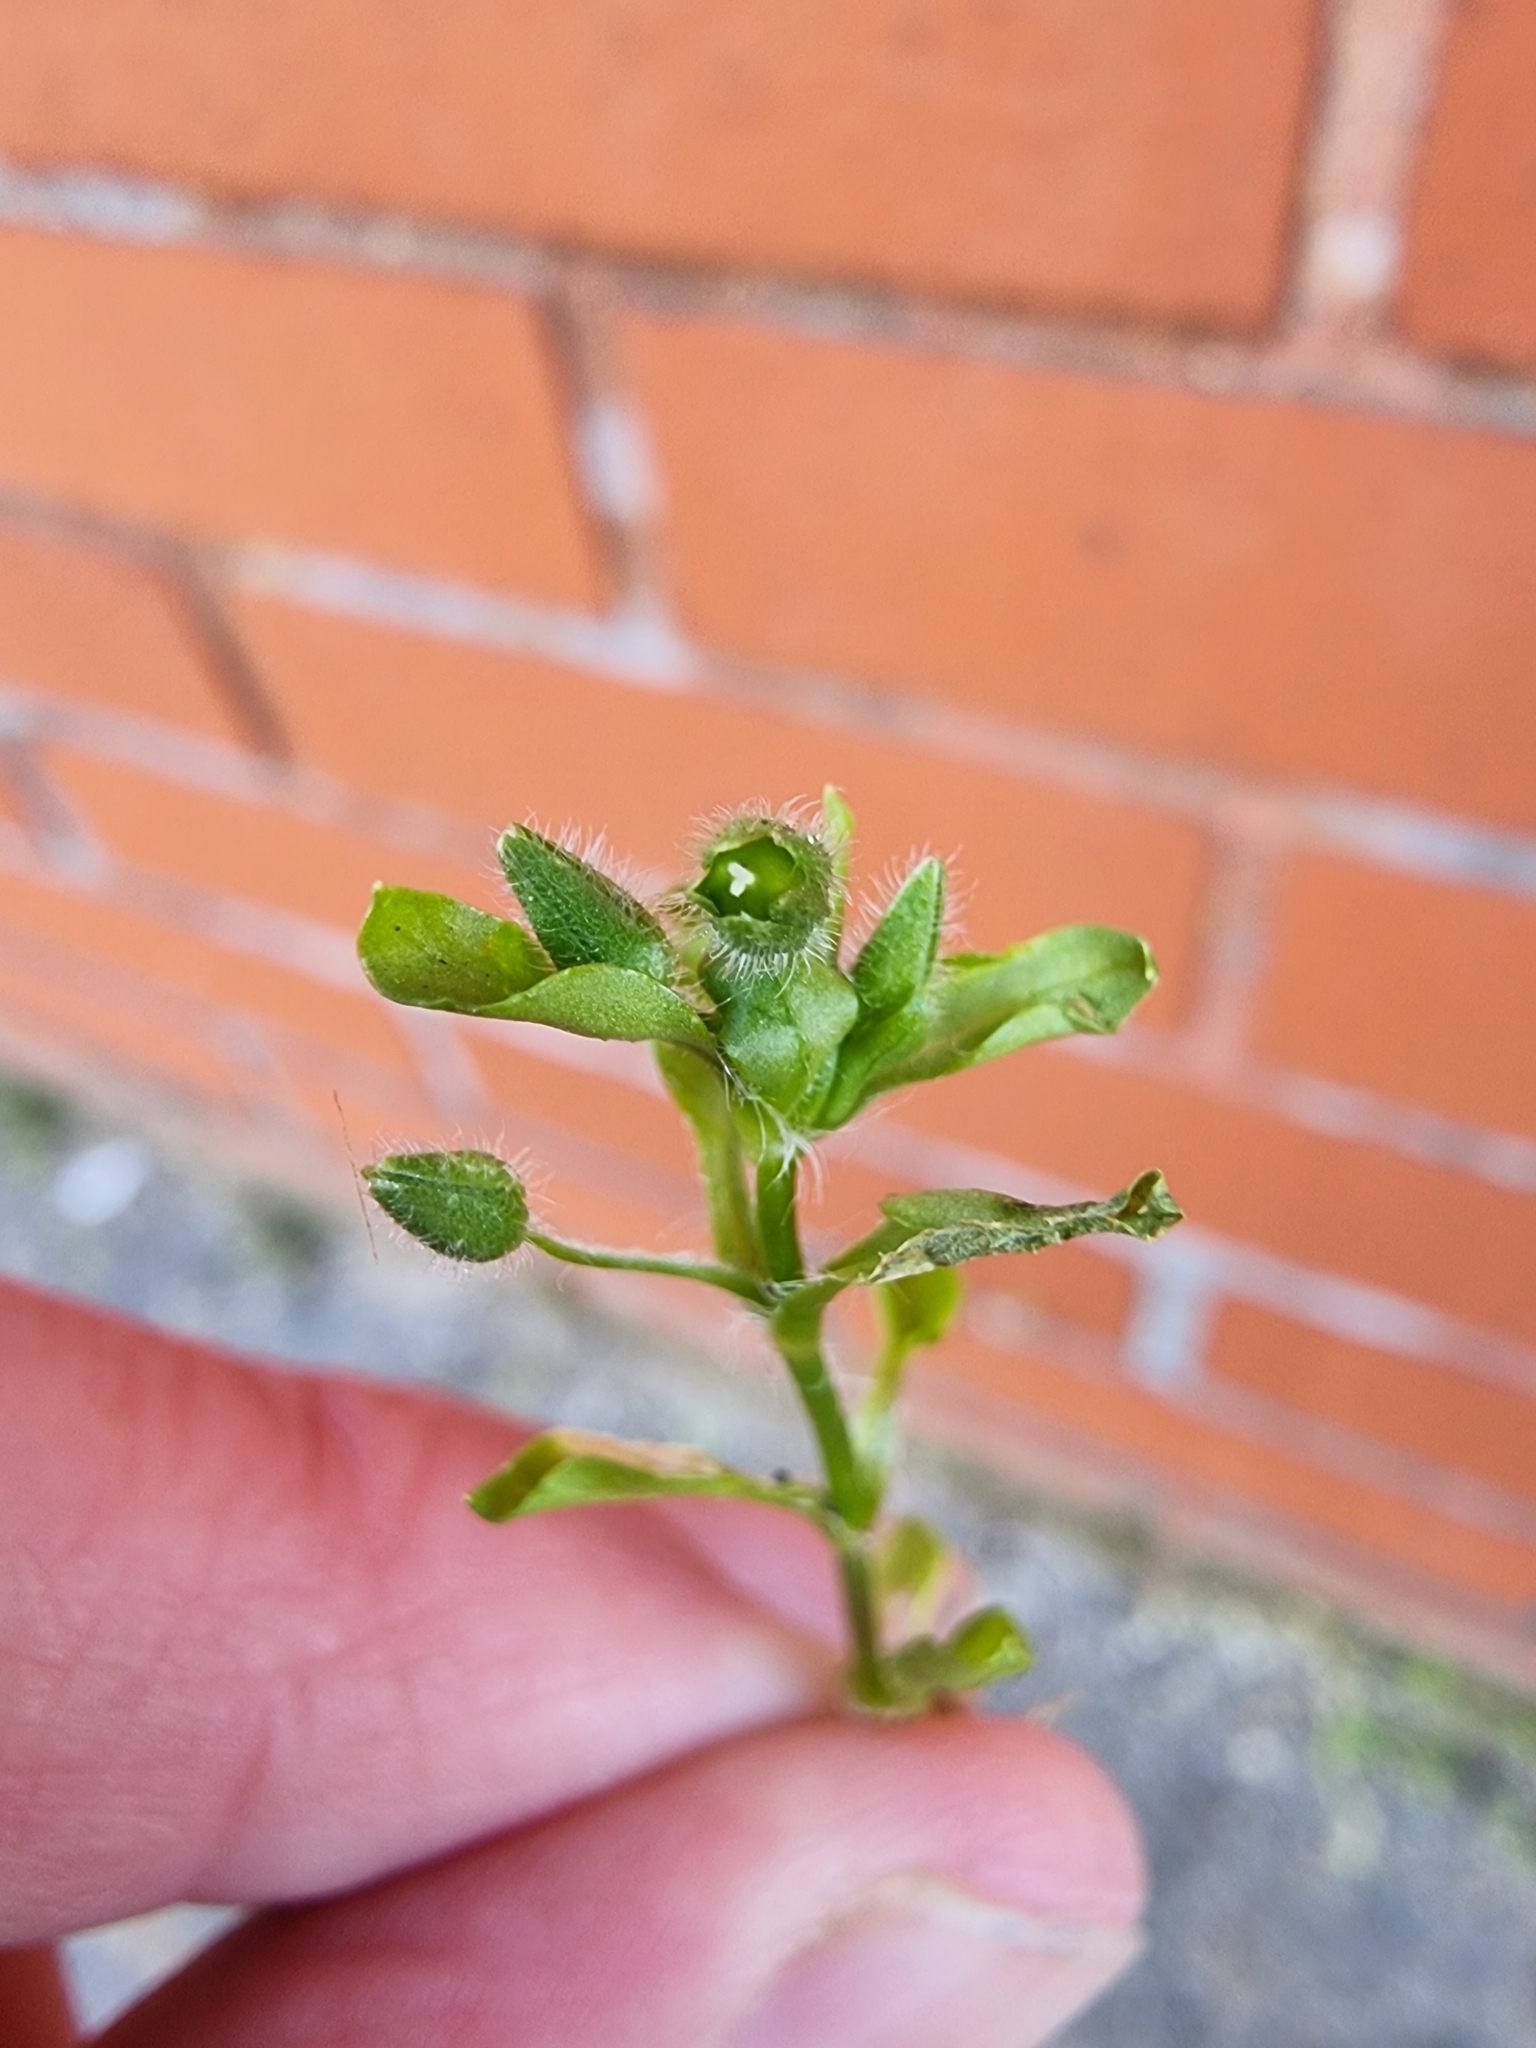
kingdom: Plantae
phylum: Tracheophyta
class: Magnoliopsida
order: Caryophyllales
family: Caryophyllaceae
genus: Stellaria
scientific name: Stellaria apetala
